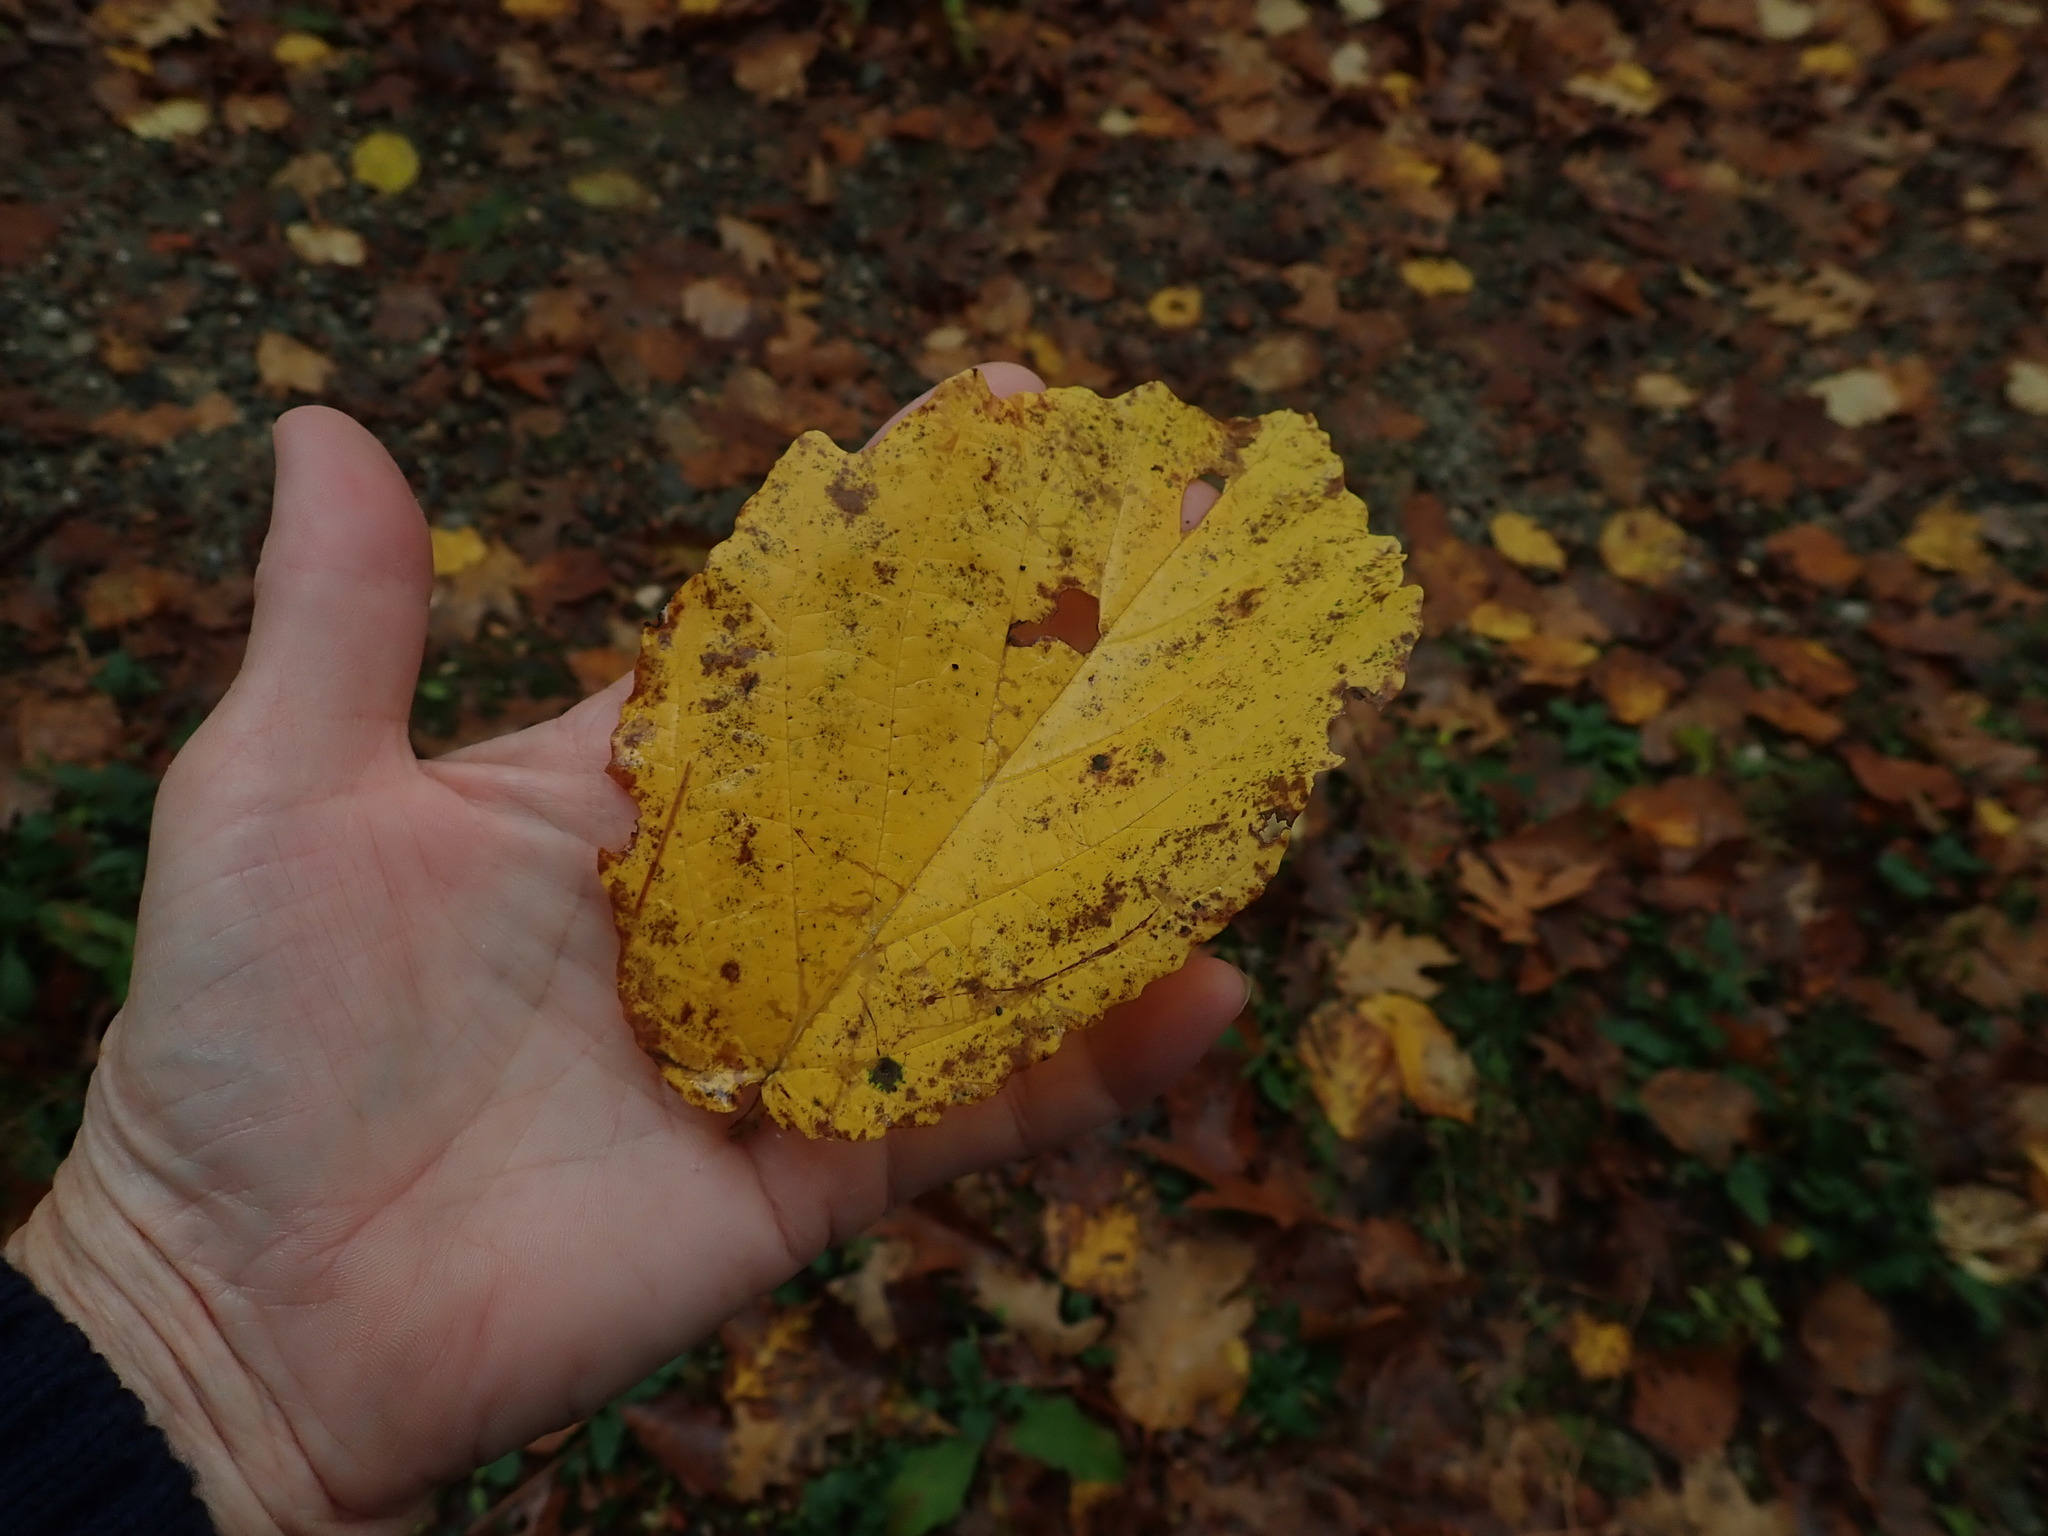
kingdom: Plantae
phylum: Tracheophyta
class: Magnoliopsida
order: Saxifragales
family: Hamamelidaceae
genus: Hamamelis
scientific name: Hamamelis virginiana
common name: Witch-hazel
